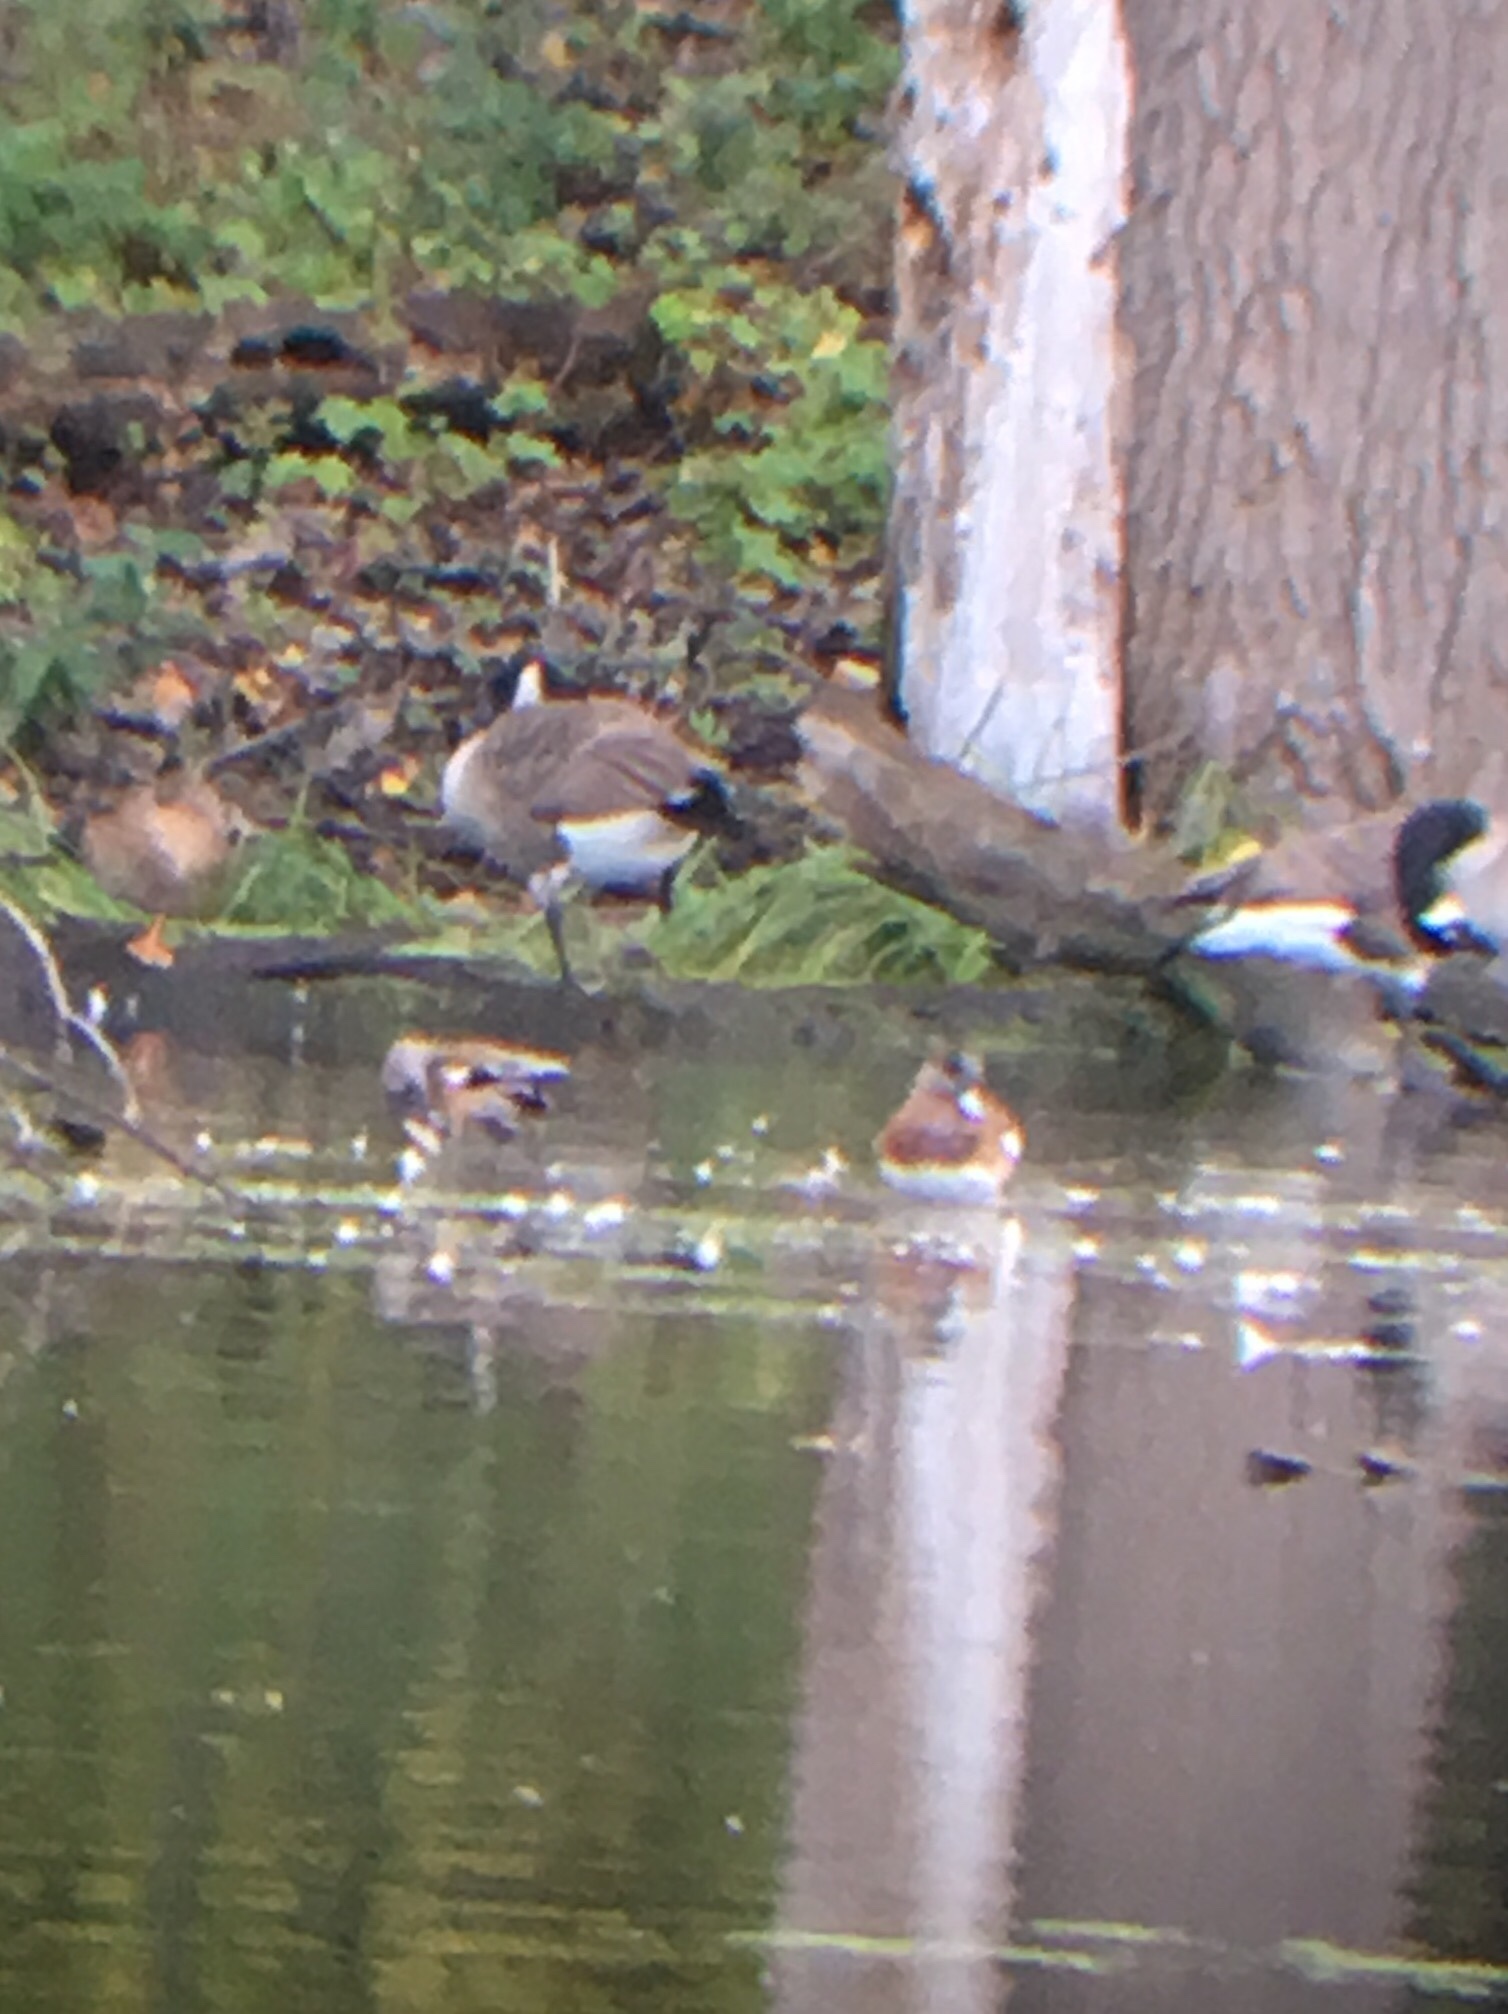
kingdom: Animalia
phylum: Chordata
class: Aves
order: Anseriformes
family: Anatidae
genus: Mareca
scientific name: Mareca americana
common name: American wigeon
